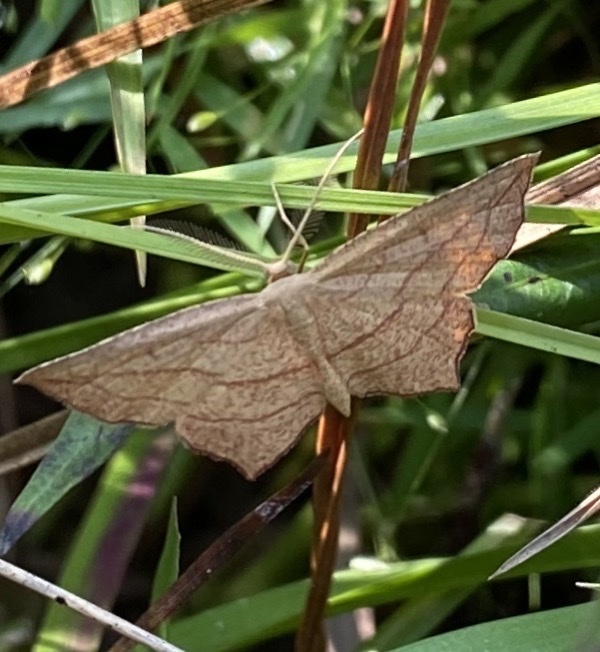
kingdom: Animalia
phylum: Arthropoda
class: Insecta
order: Lepidoptera
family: Geometridae
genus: Timandra
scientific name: Timandra amaturaria
